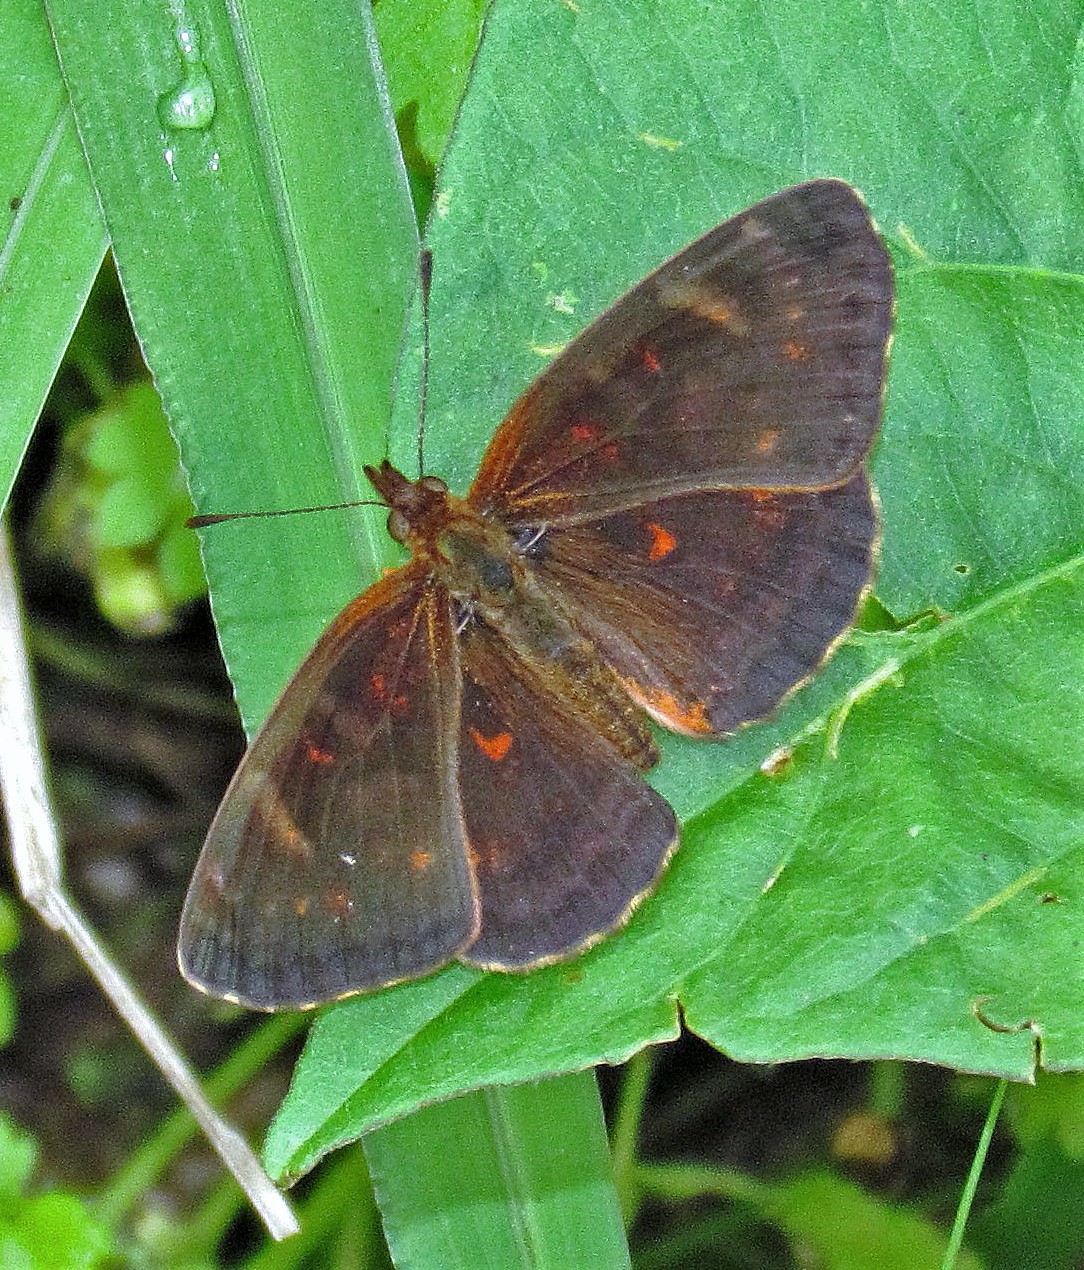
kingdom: Animalia
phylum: Arthropoda
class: Insecta
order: Lepidoptera
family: Nymphalidae
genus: Ortilia
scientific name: Ortilia velica
